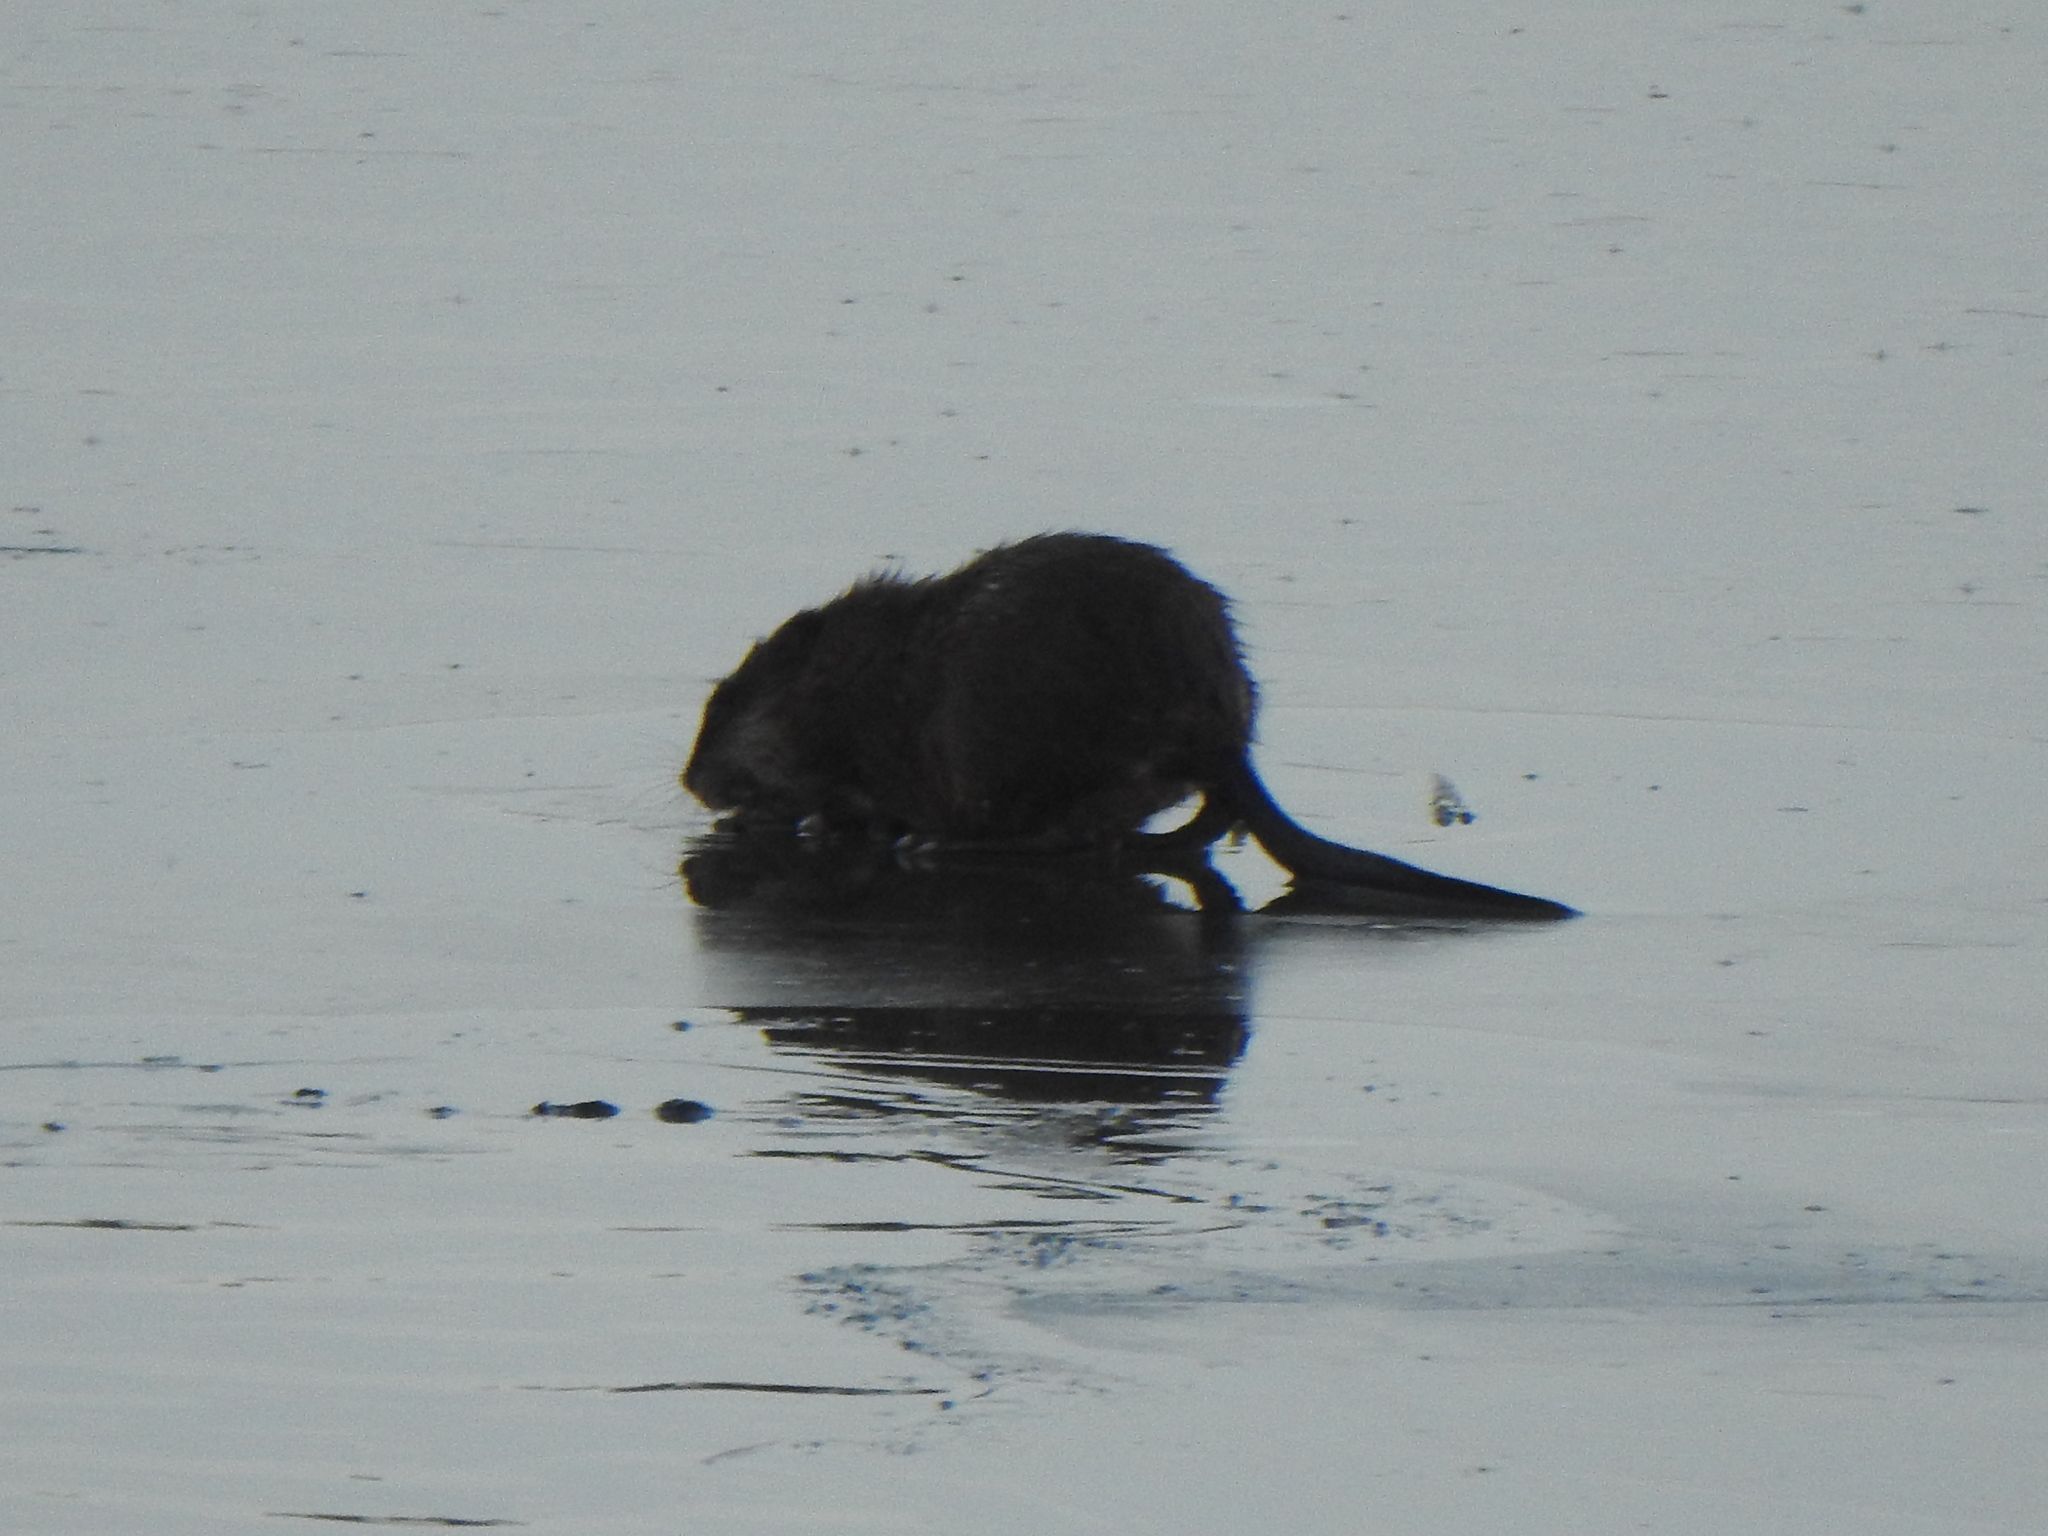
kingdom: Animalia
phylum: Chordata
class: Mammalia
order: Rodentia
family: Cricetidae
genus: Ondatra
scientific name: Ondatra zibethicus
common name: Muskrat
